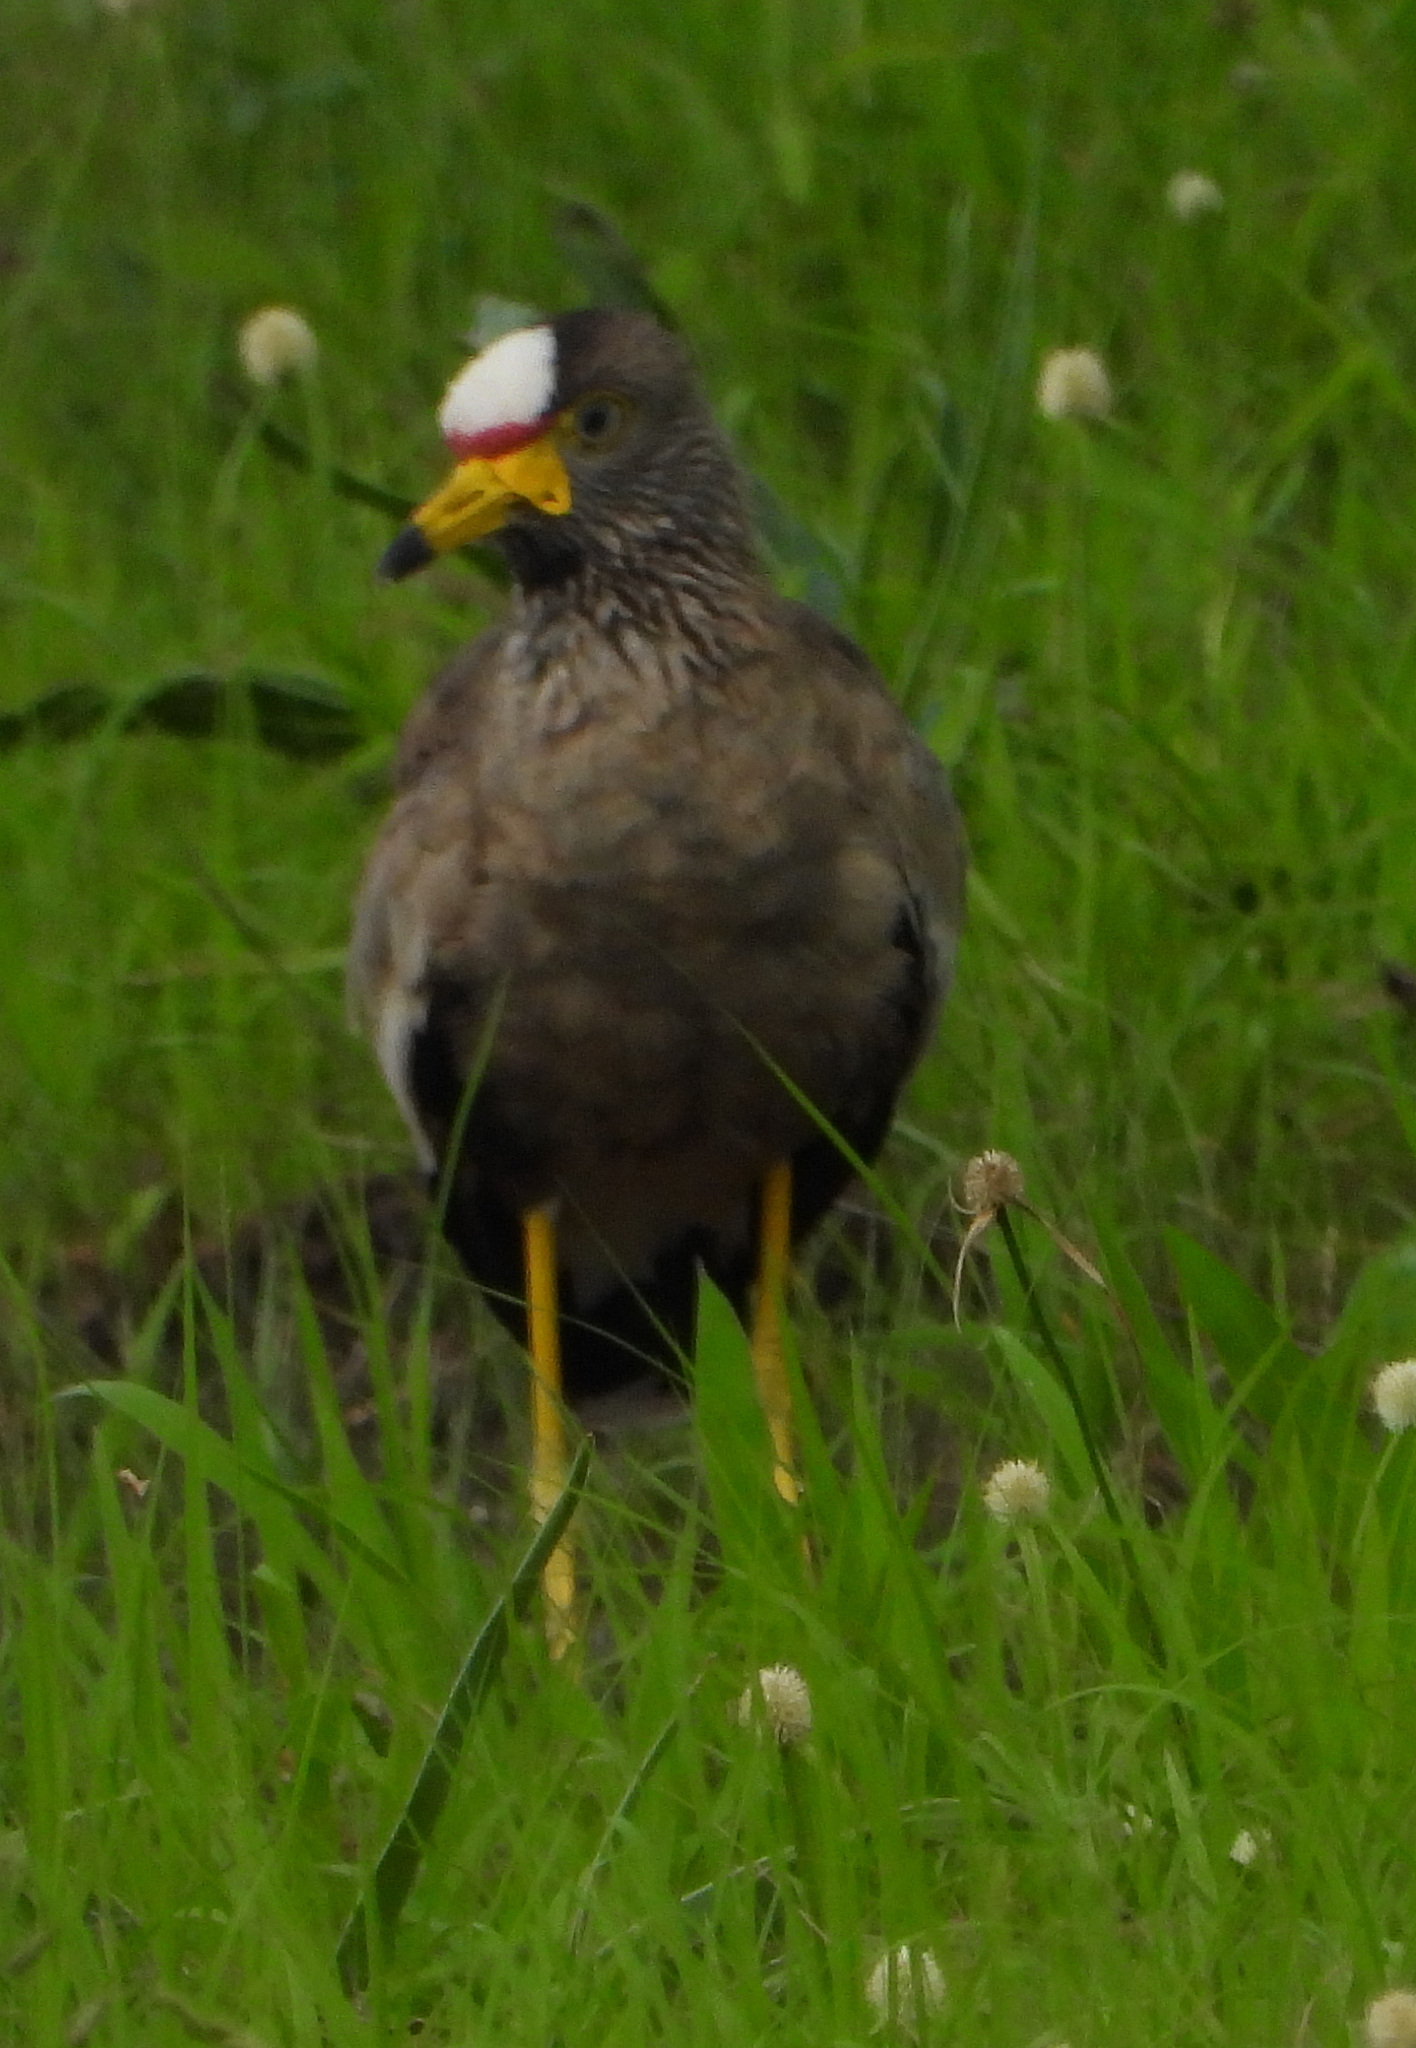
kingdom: Animalia
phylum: Chordata
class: Aves
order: Charadriiformes
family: Charadriidae
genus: Vanellus
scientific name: Vanellus senegallus
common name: African wattled lapwing
